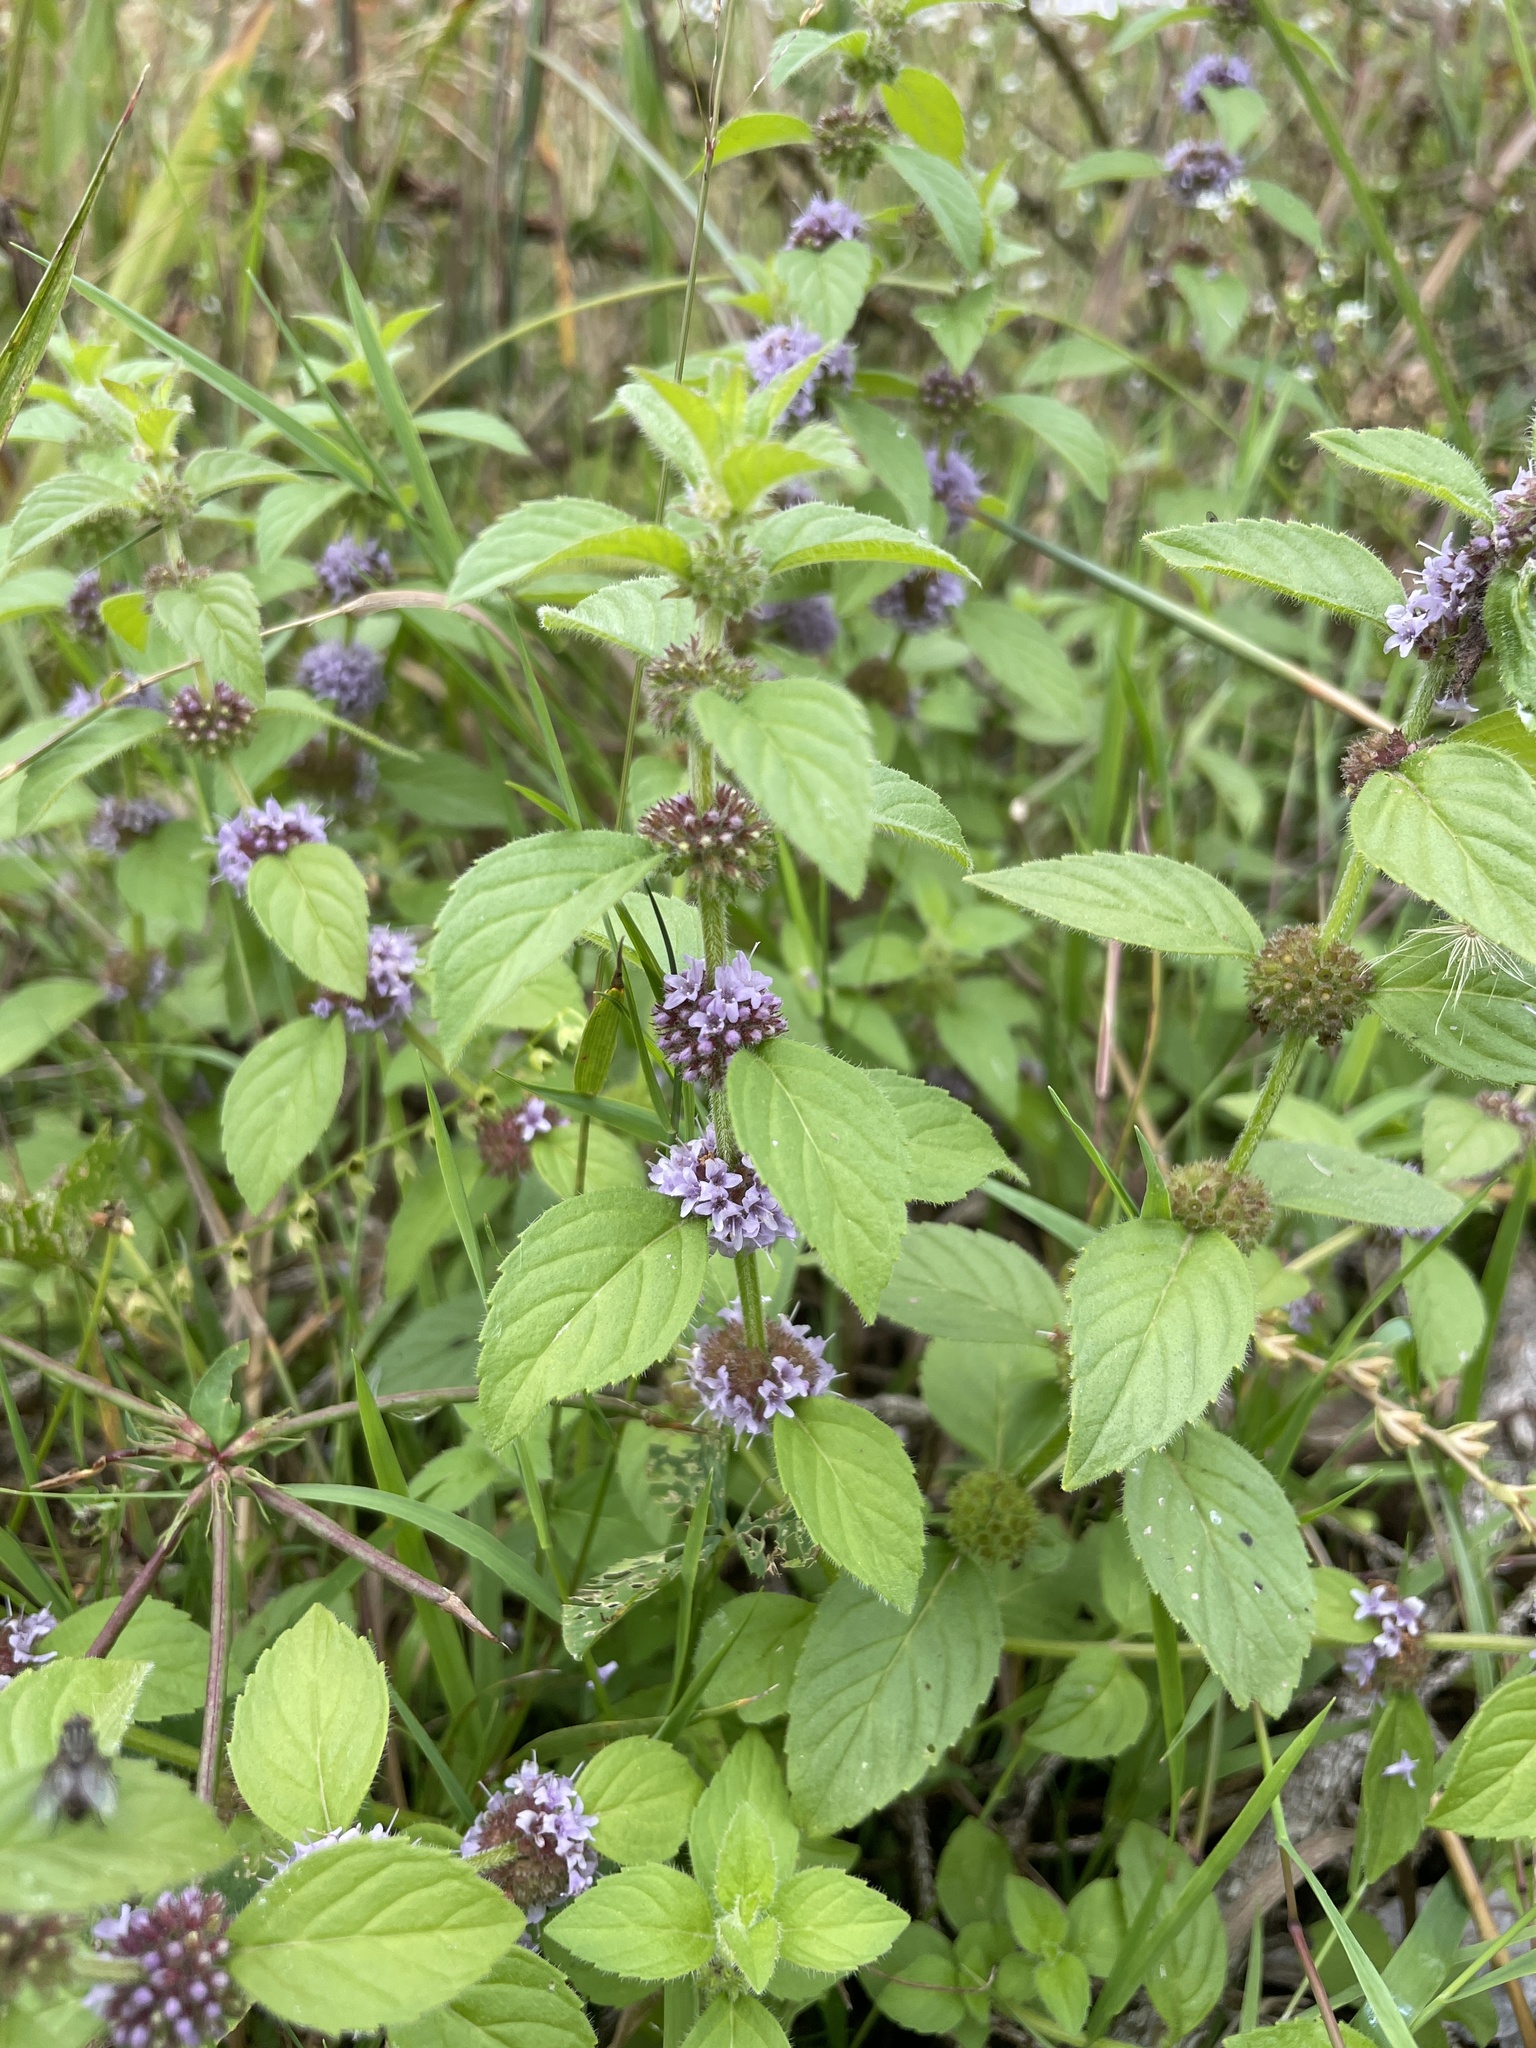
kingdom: Plantae
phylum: Tracheophyta
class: Magnoliopsida
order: Lamiales
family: Lamiaceae
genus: Mentha
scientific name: Mentha arvensis
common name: Corn mint
